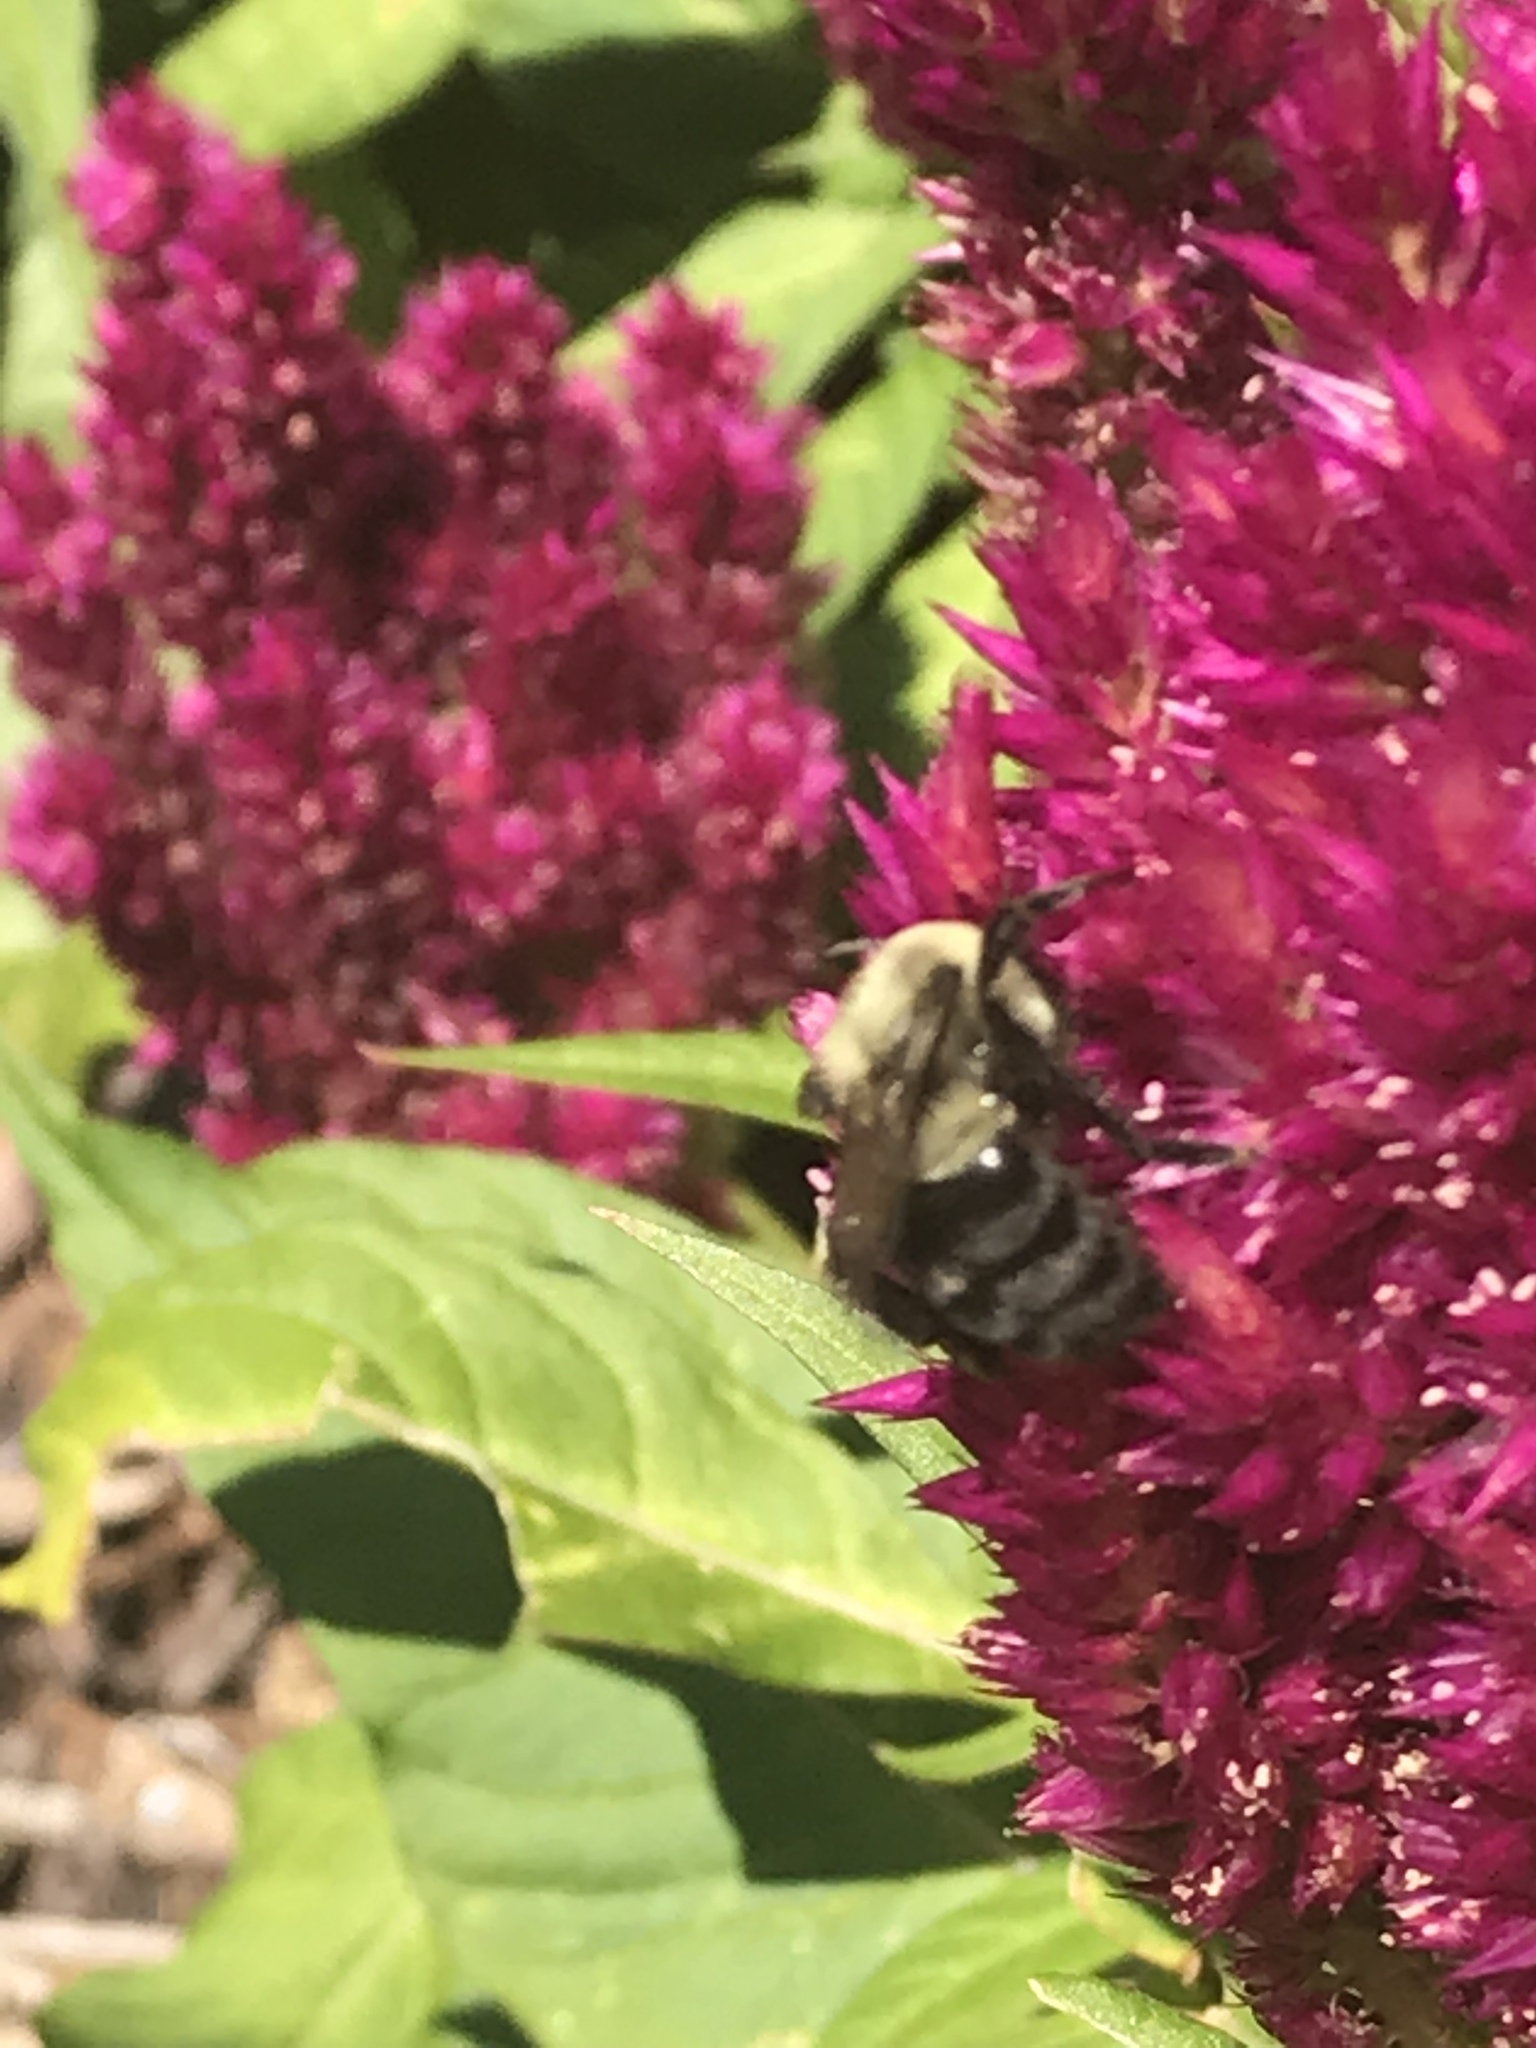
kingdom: Animalia
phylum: Arthropoda
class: Insecta
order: Hymenoptera
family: Apidae
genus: Bombus
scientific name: Bombus impatiens
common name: Common eastern bumble bee
